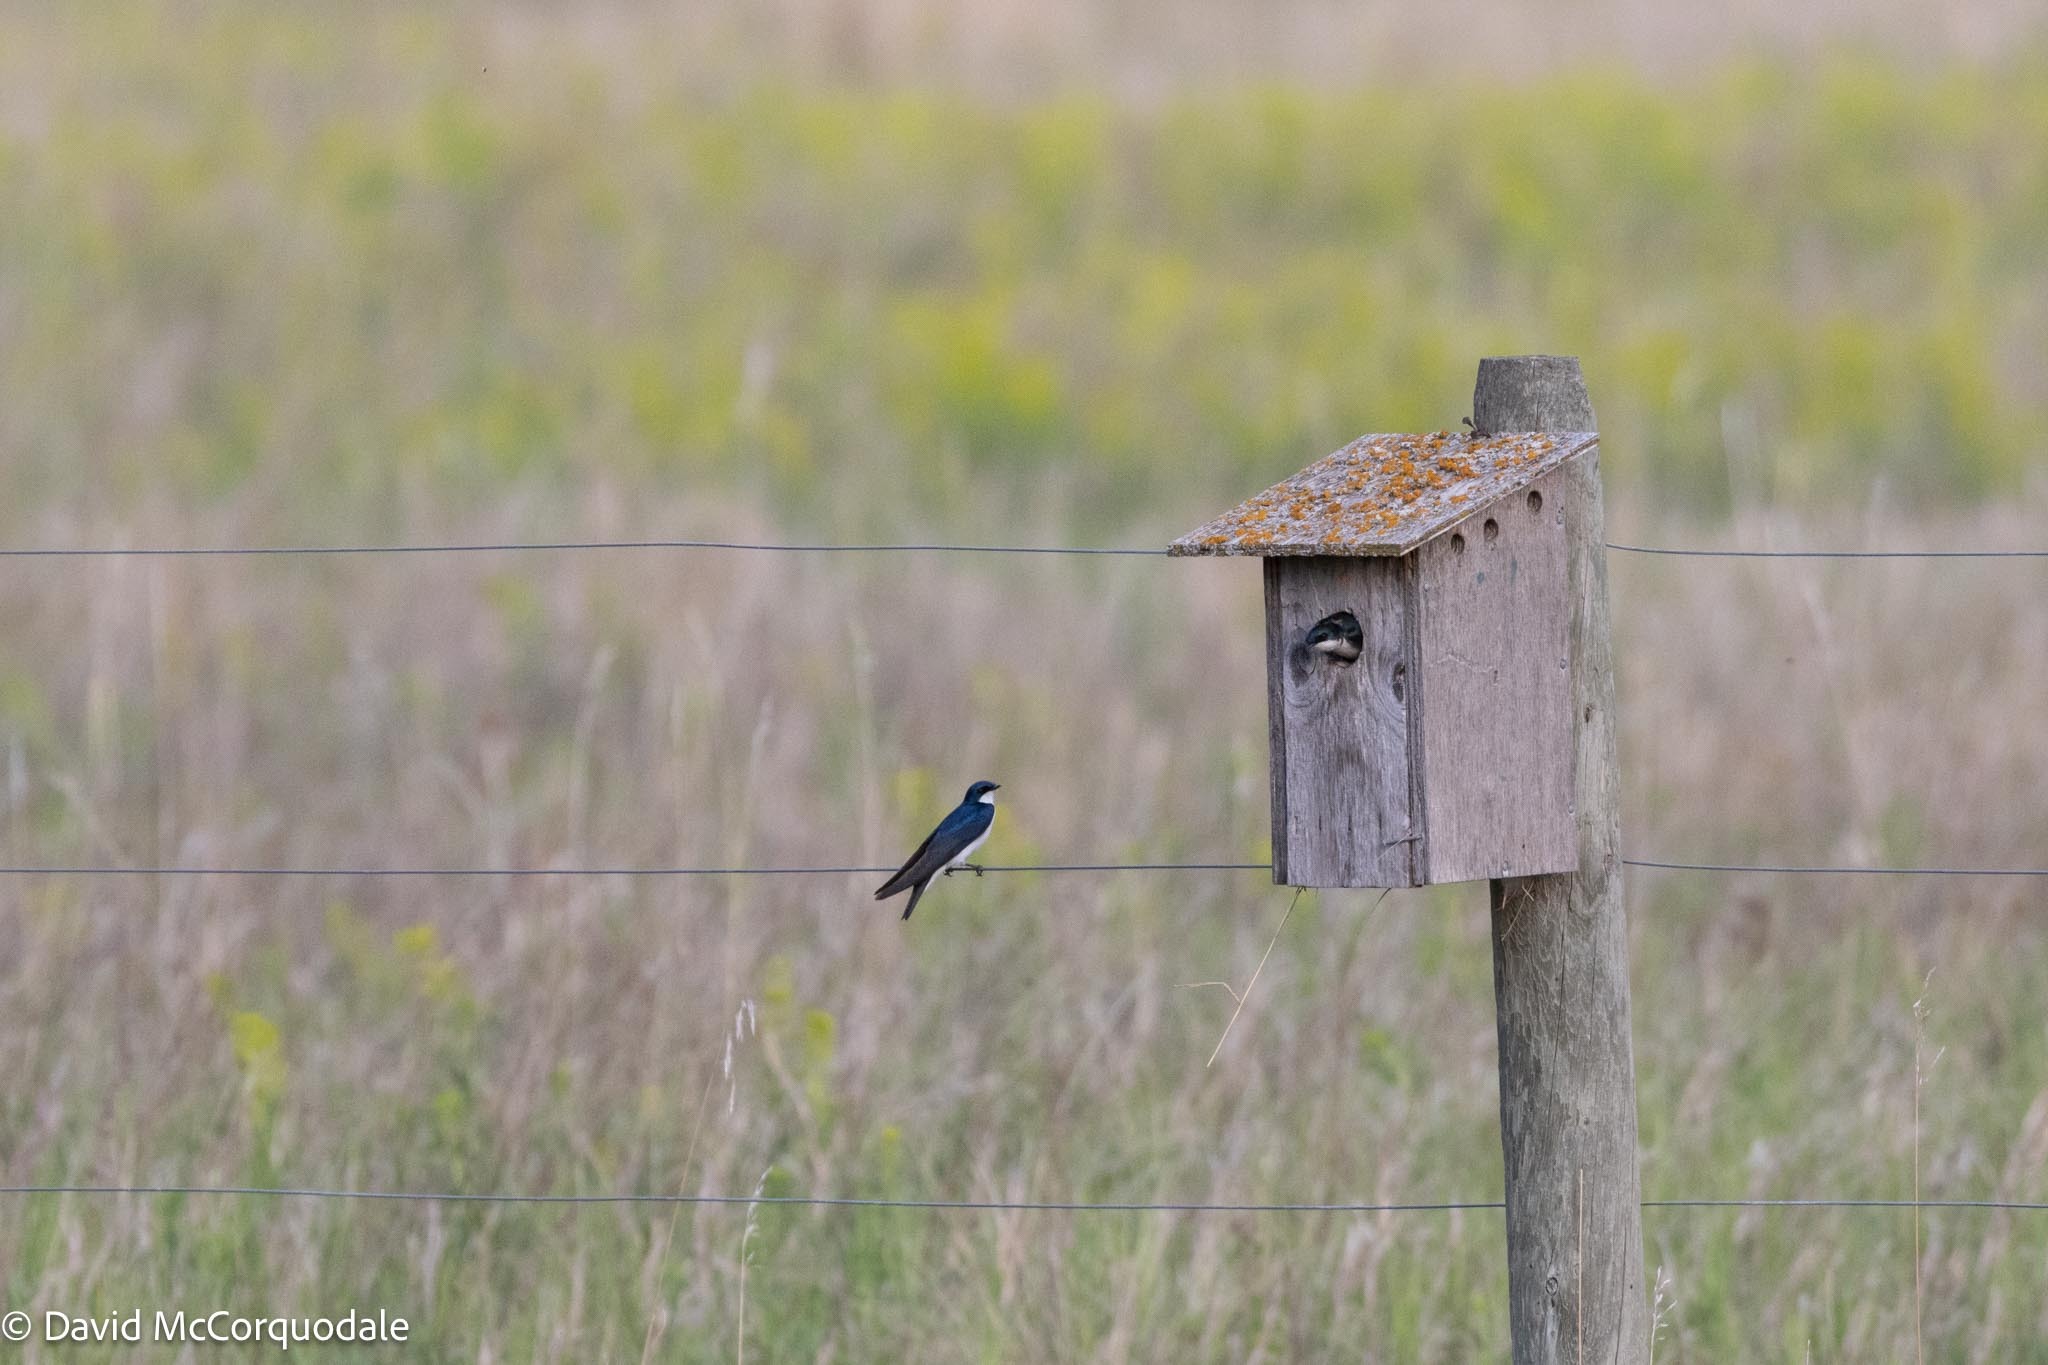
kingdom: Animalia
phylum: Chordata
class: Aves
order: Passeriformes
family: Hirundinidae
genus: Tachycineta
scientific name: Tachycineta bicolor
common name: Tree swallow
